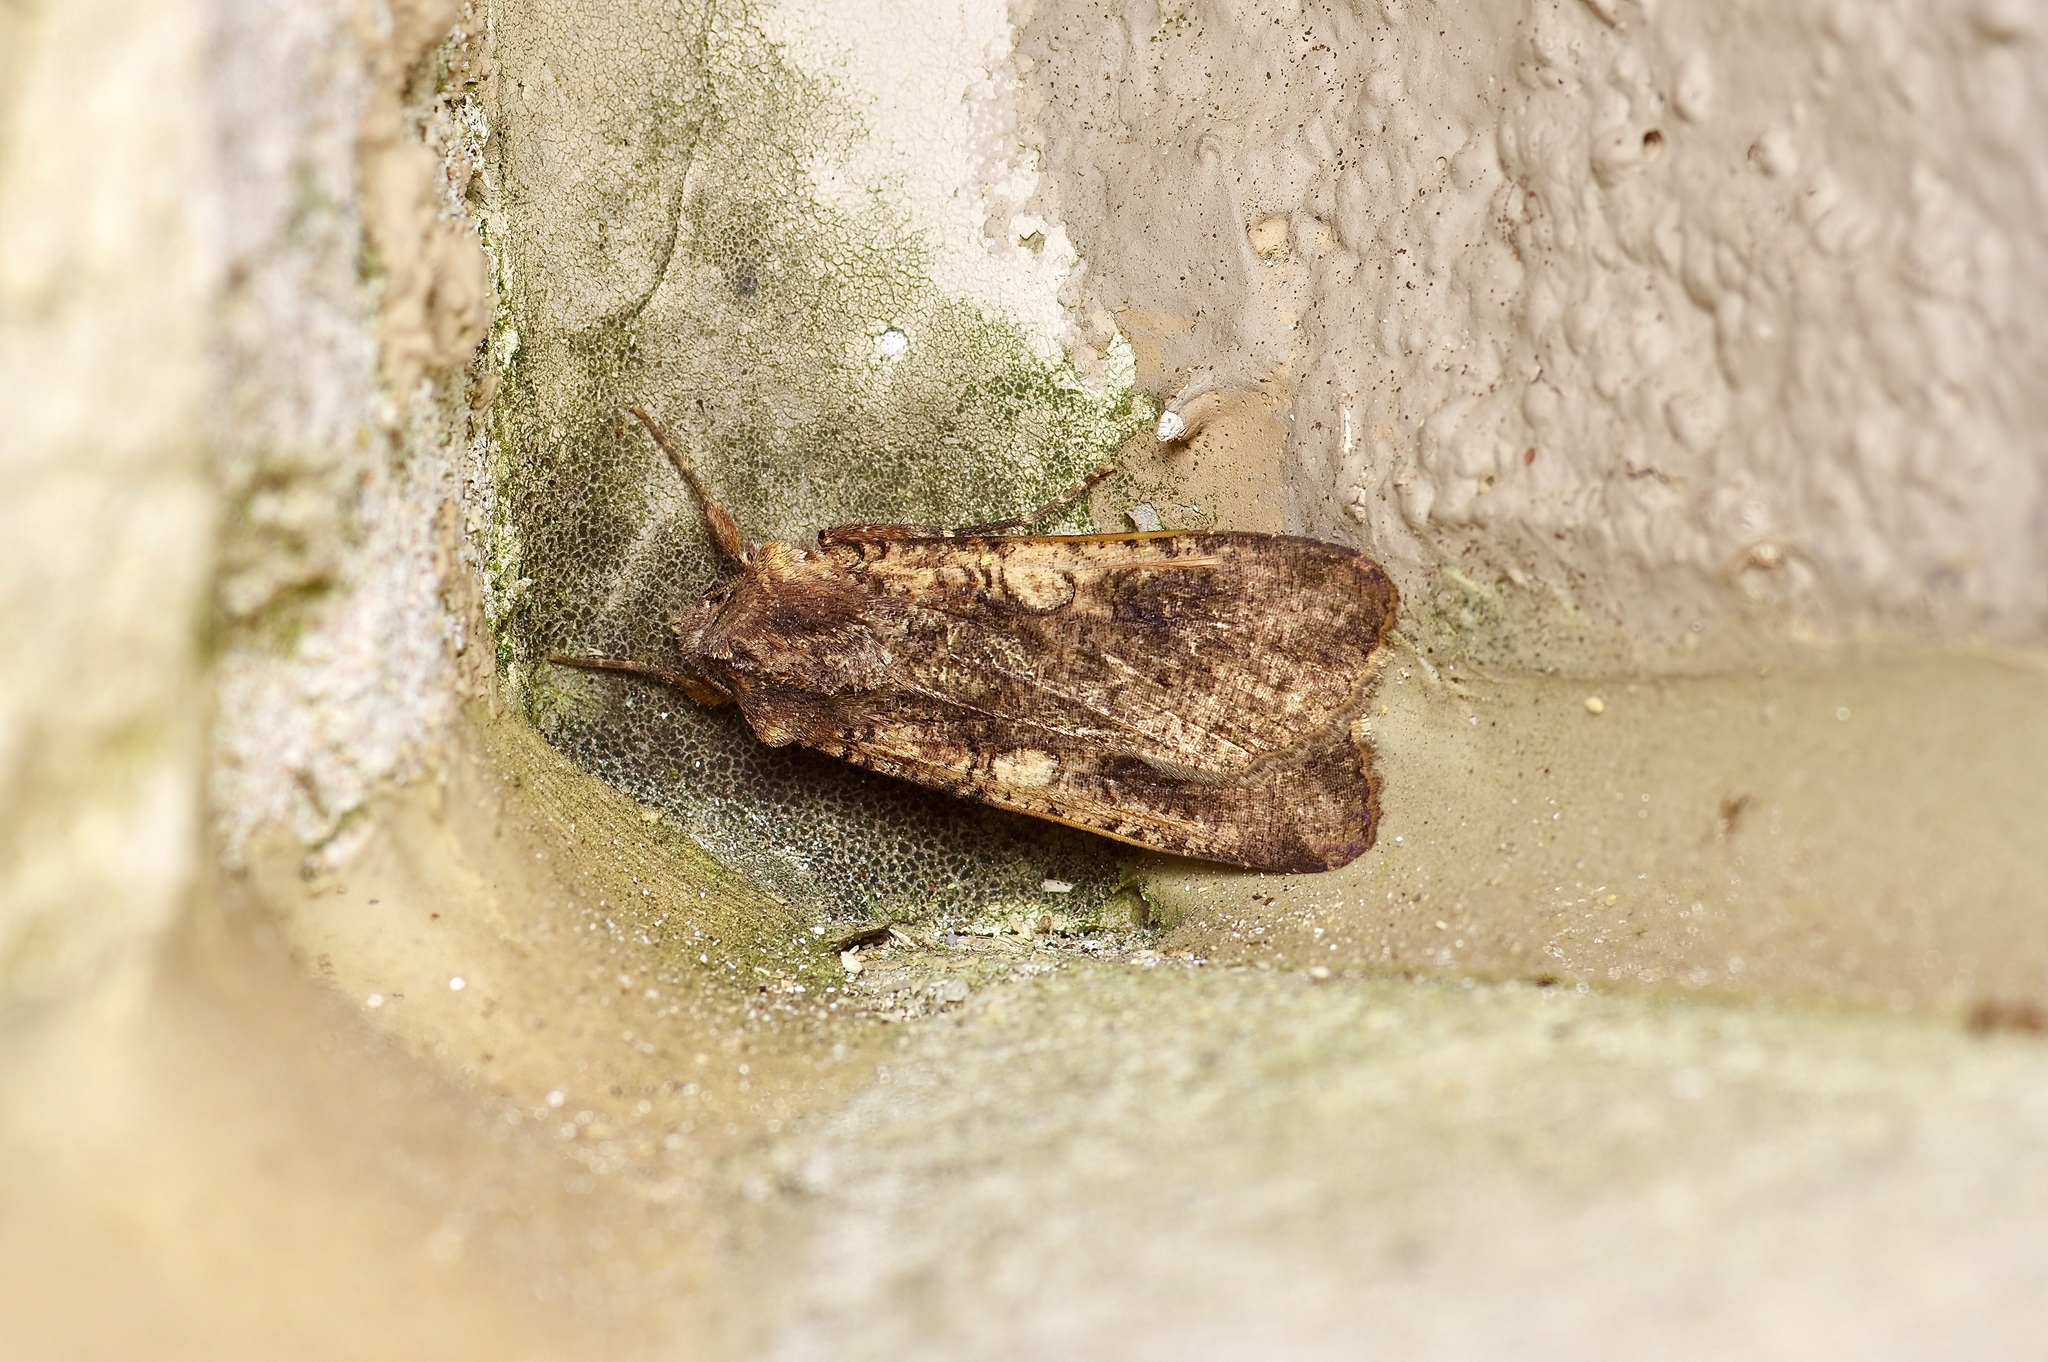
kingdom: Animalia
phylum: Arthropoda
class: Insecta
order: Lepidoptera
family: Noctuidae
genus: Peridroma
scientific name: Peridroma saucia
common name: Pearly underwing
